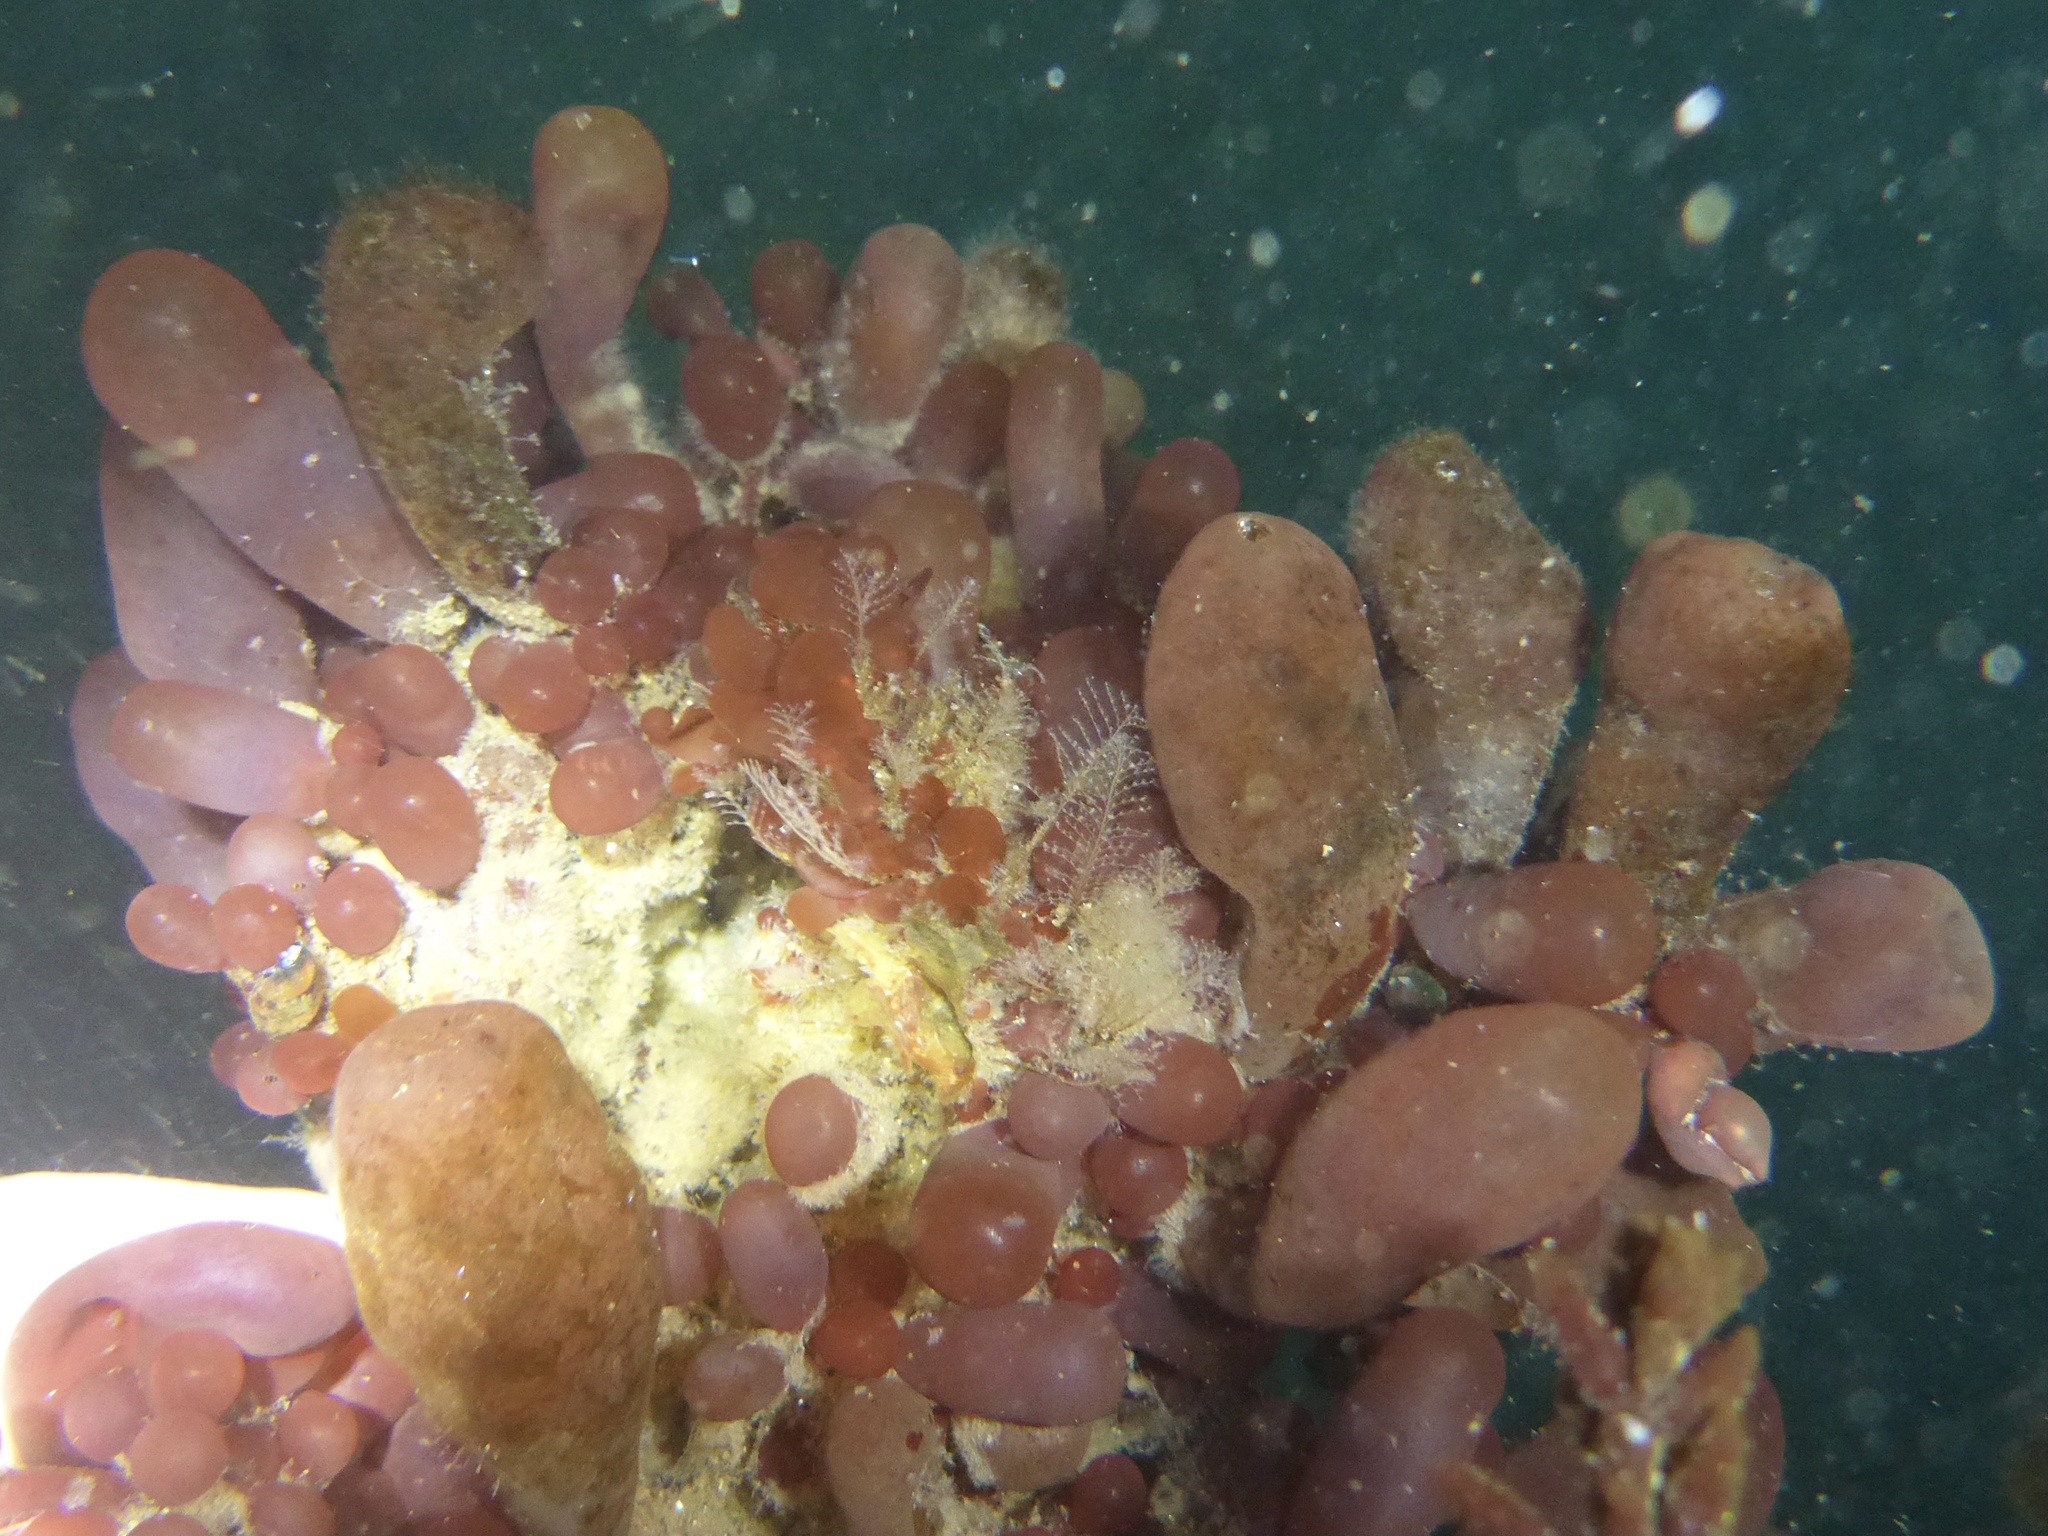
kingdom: Plantae
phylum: Rhodophyta
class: Florideophyceae
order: Rhodymeniales
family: Rhodymeniaceae
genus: Botryocladia
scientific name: Botryocladia pseudodichotoma
